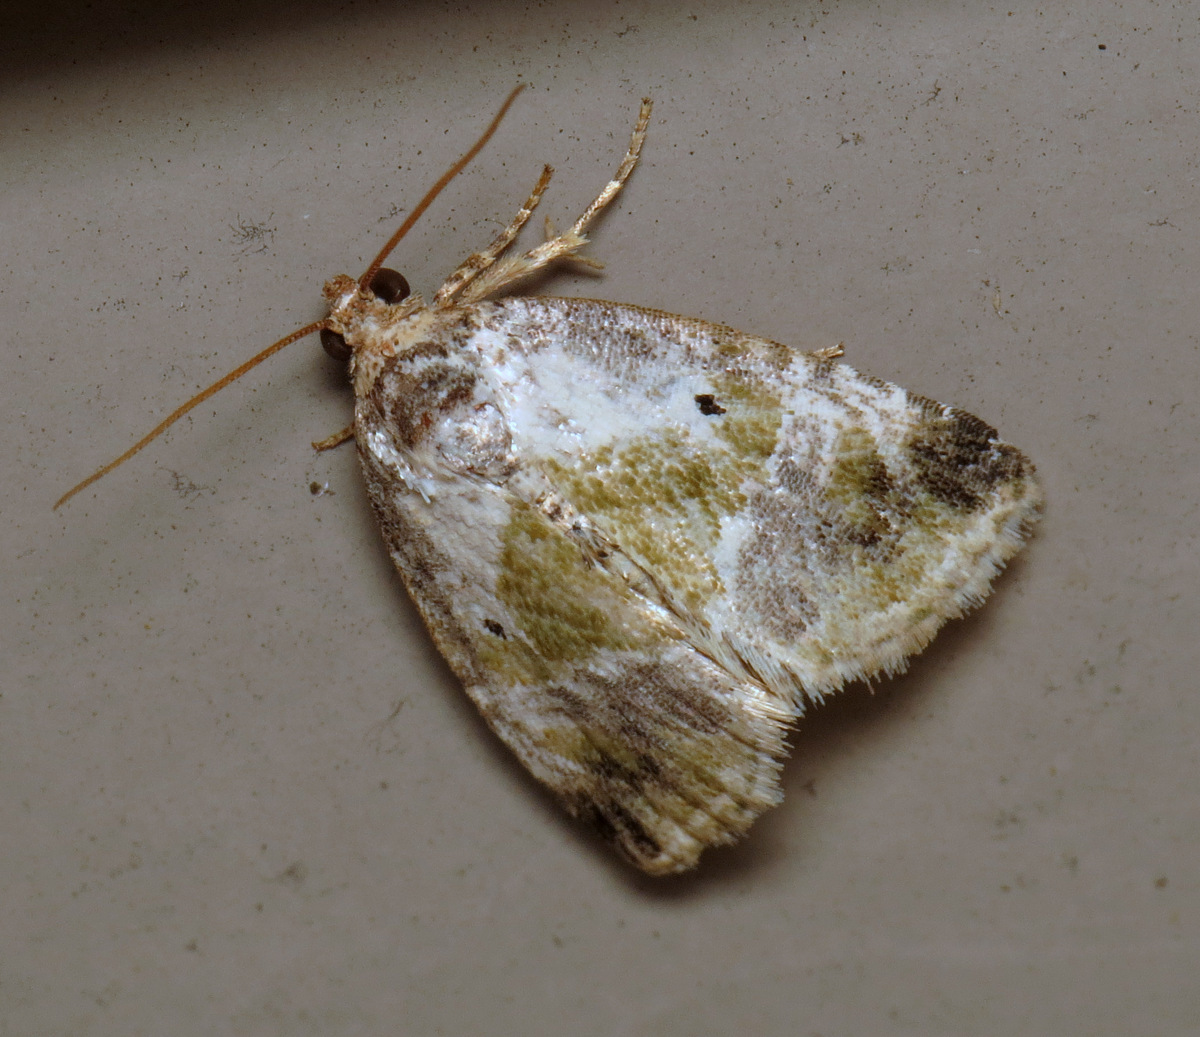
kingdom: Animalia
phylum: Arthropoda
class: Insecta
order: Lepidoptera
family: Noctuidae
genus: Maliattha
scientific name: Maliattha synochitis
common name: Black-dotted glyph
